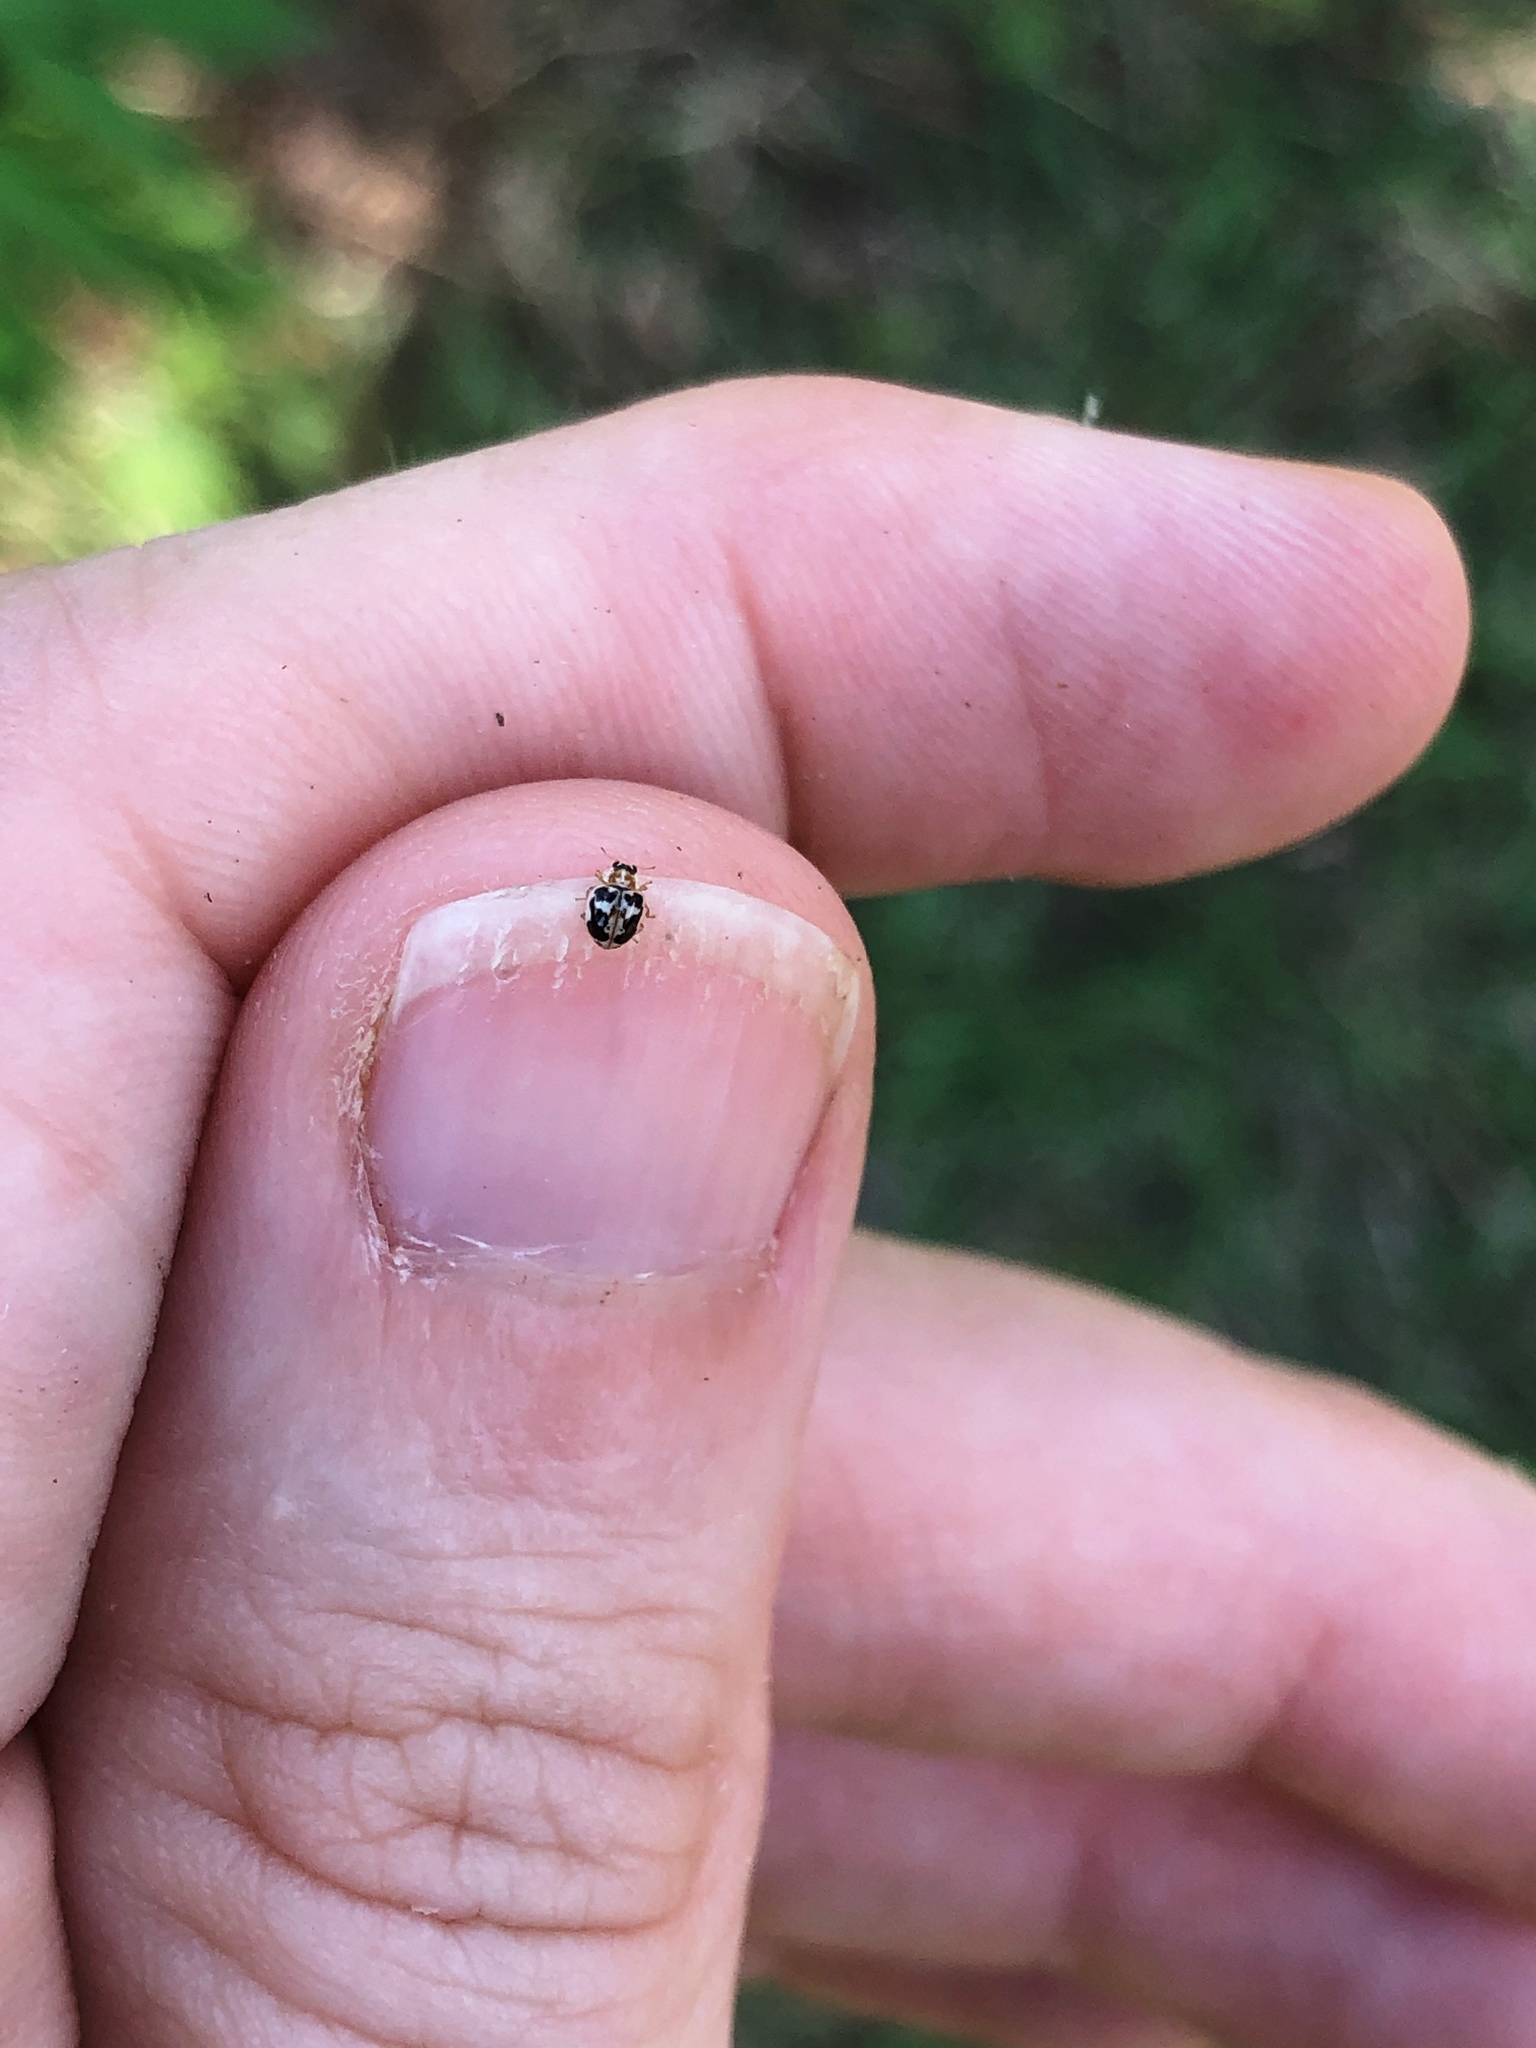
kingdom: Animalia
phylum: Arthropoda
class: Insecta
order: Coleoptera
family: Coccinellidae
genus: Psyllobora
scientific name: Psyllobora renifer
